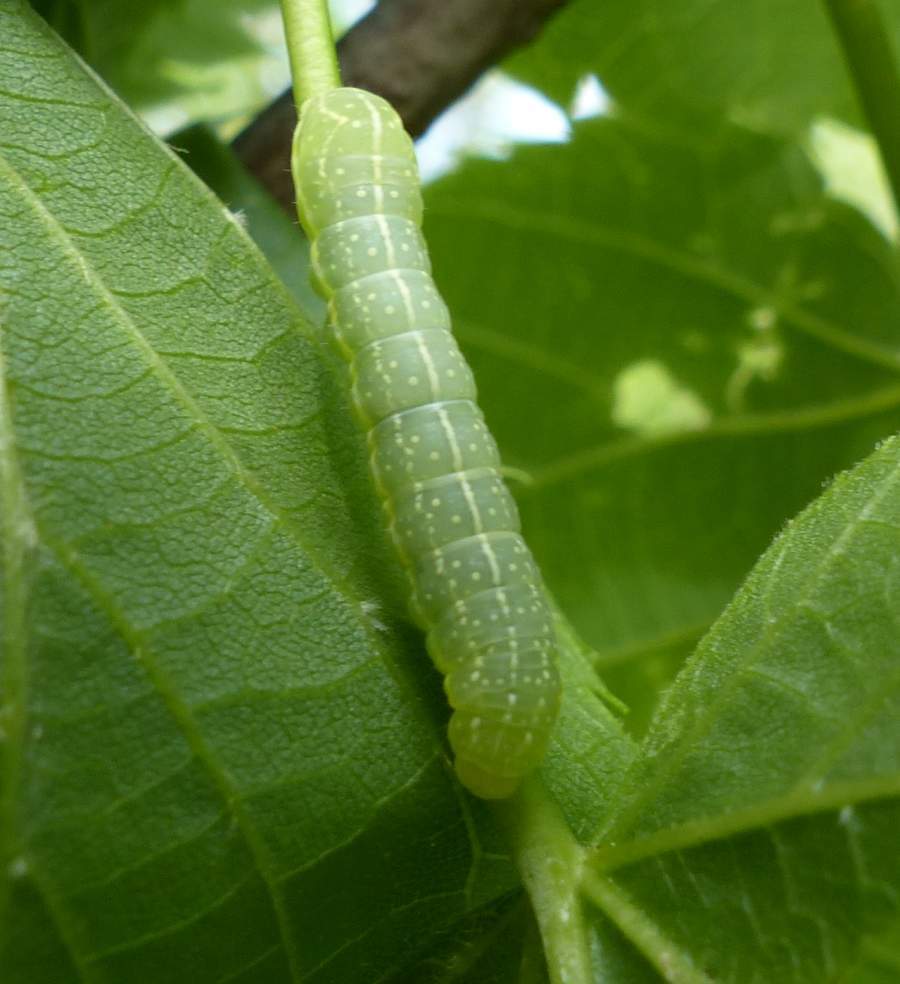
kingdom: Animalia
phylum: Arthropoda
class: Insecta
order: Lepidoptera
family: Noctuidae
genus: Amphipyra
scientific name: Amphipyra pyramidoides
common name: American copper underwing
